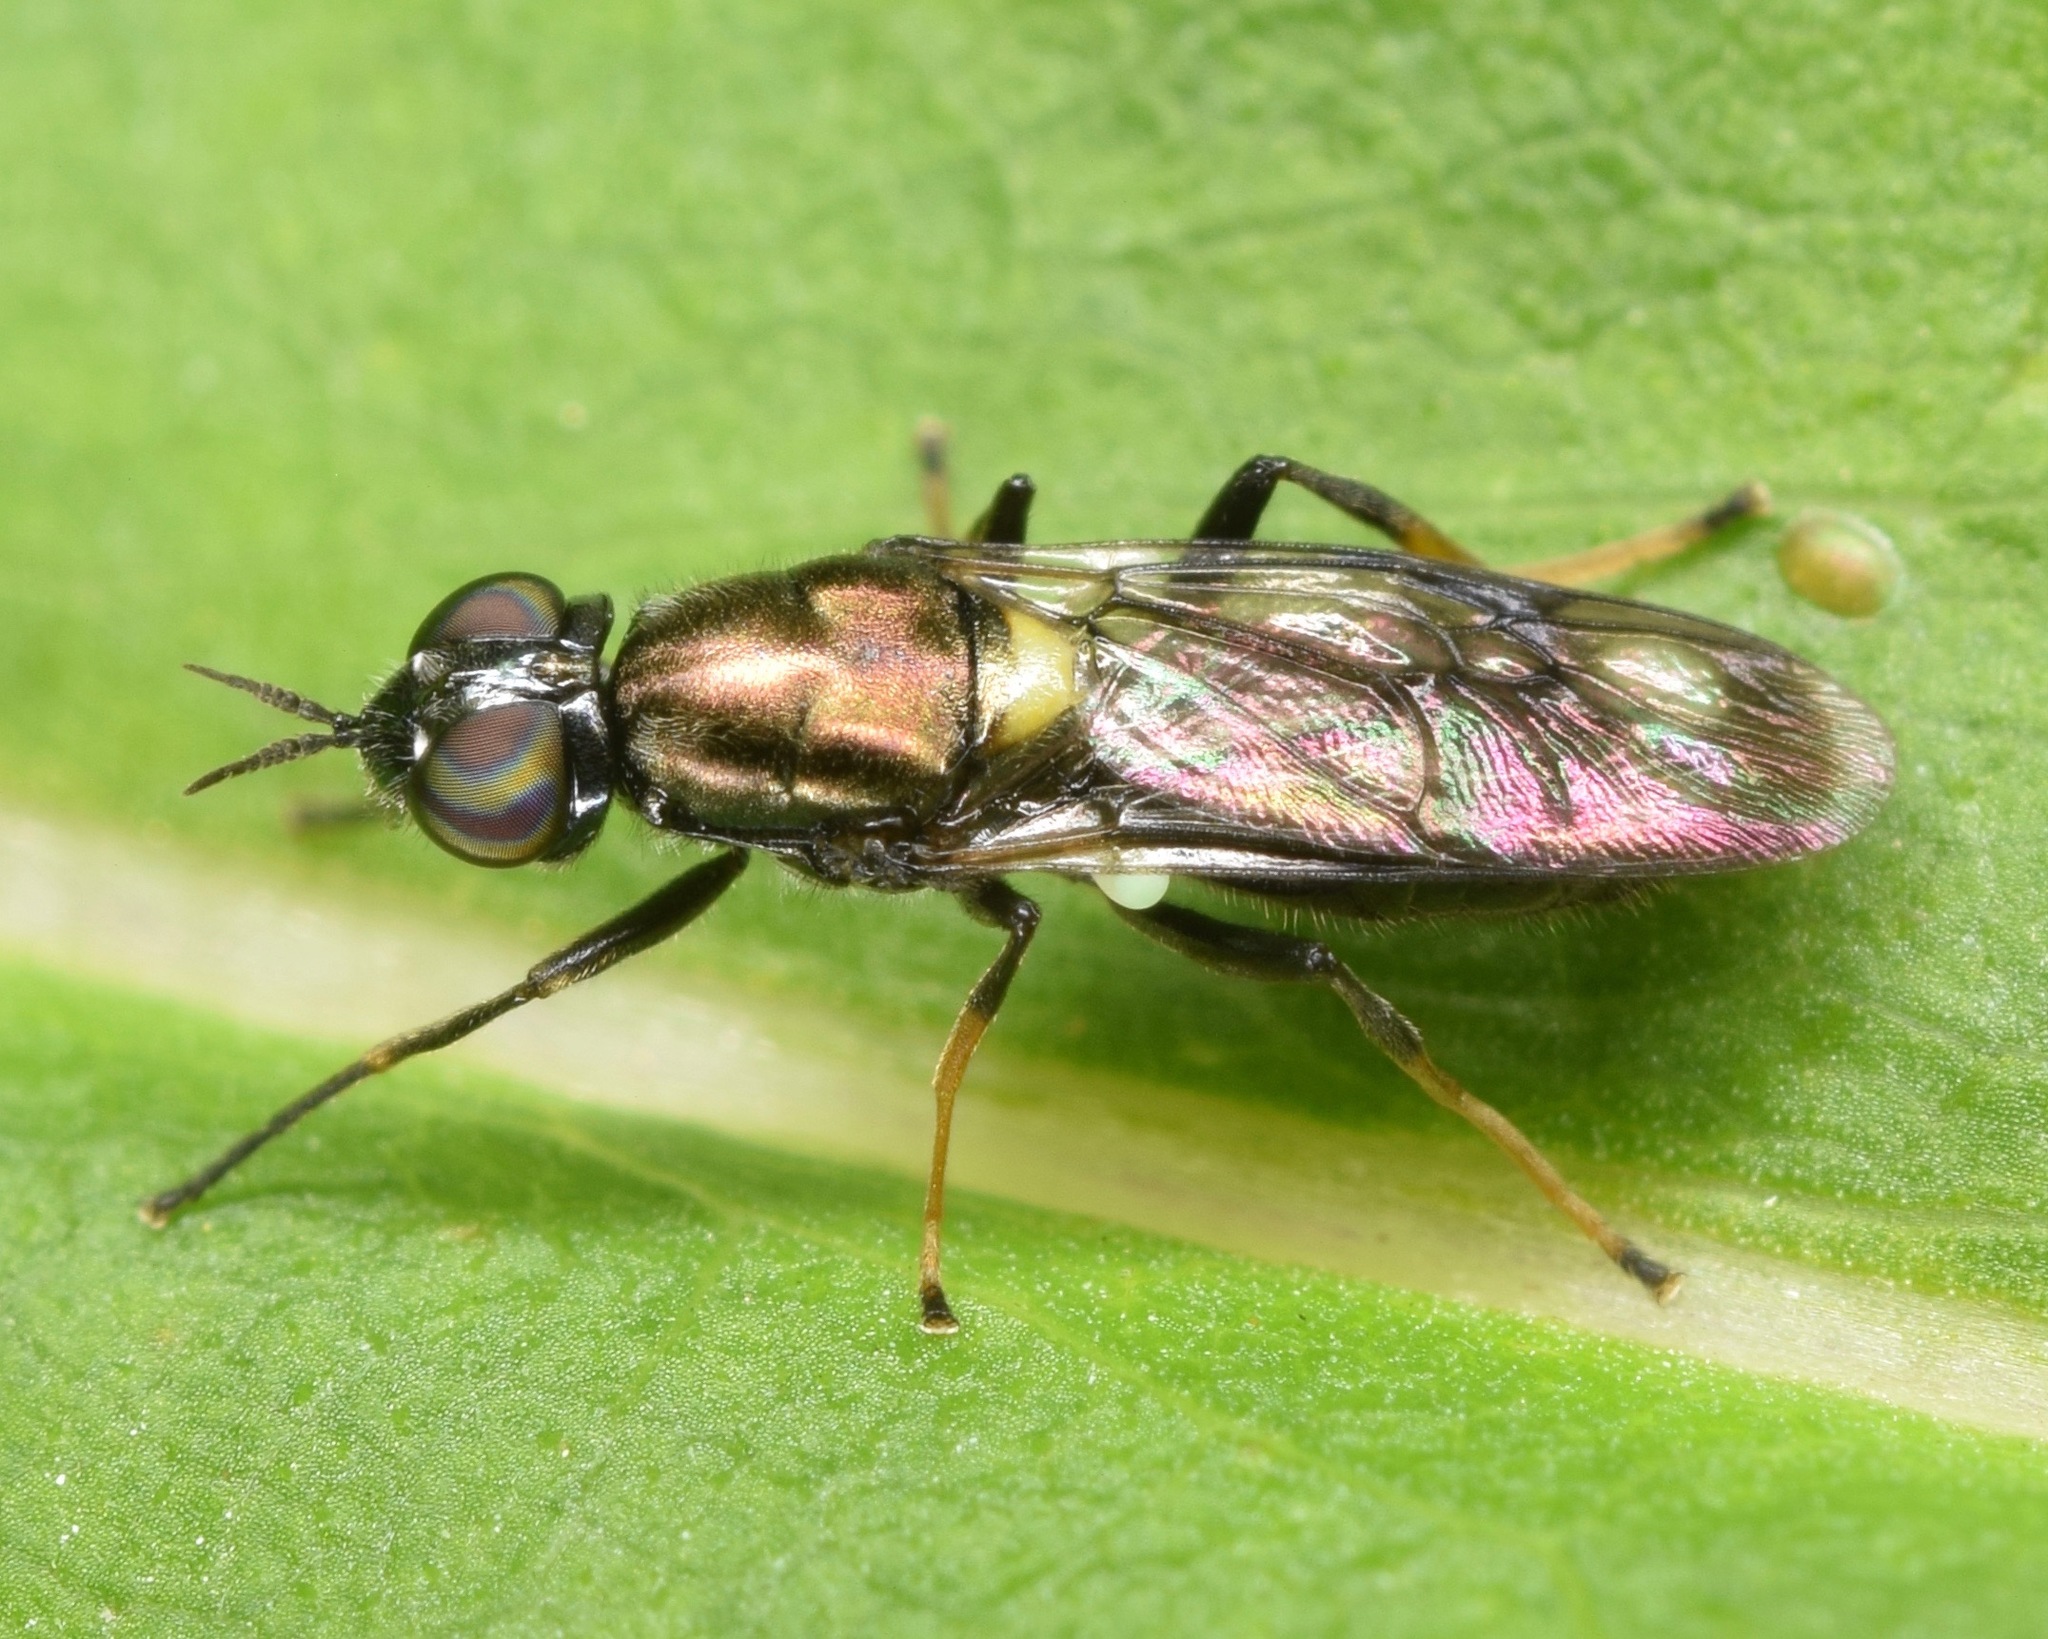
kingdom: Animalia
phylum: Arthropoda
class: Insecta
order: Diptera
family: Stratiomyidae
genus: Myxosargus
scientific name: Myxosargus nigricormis
